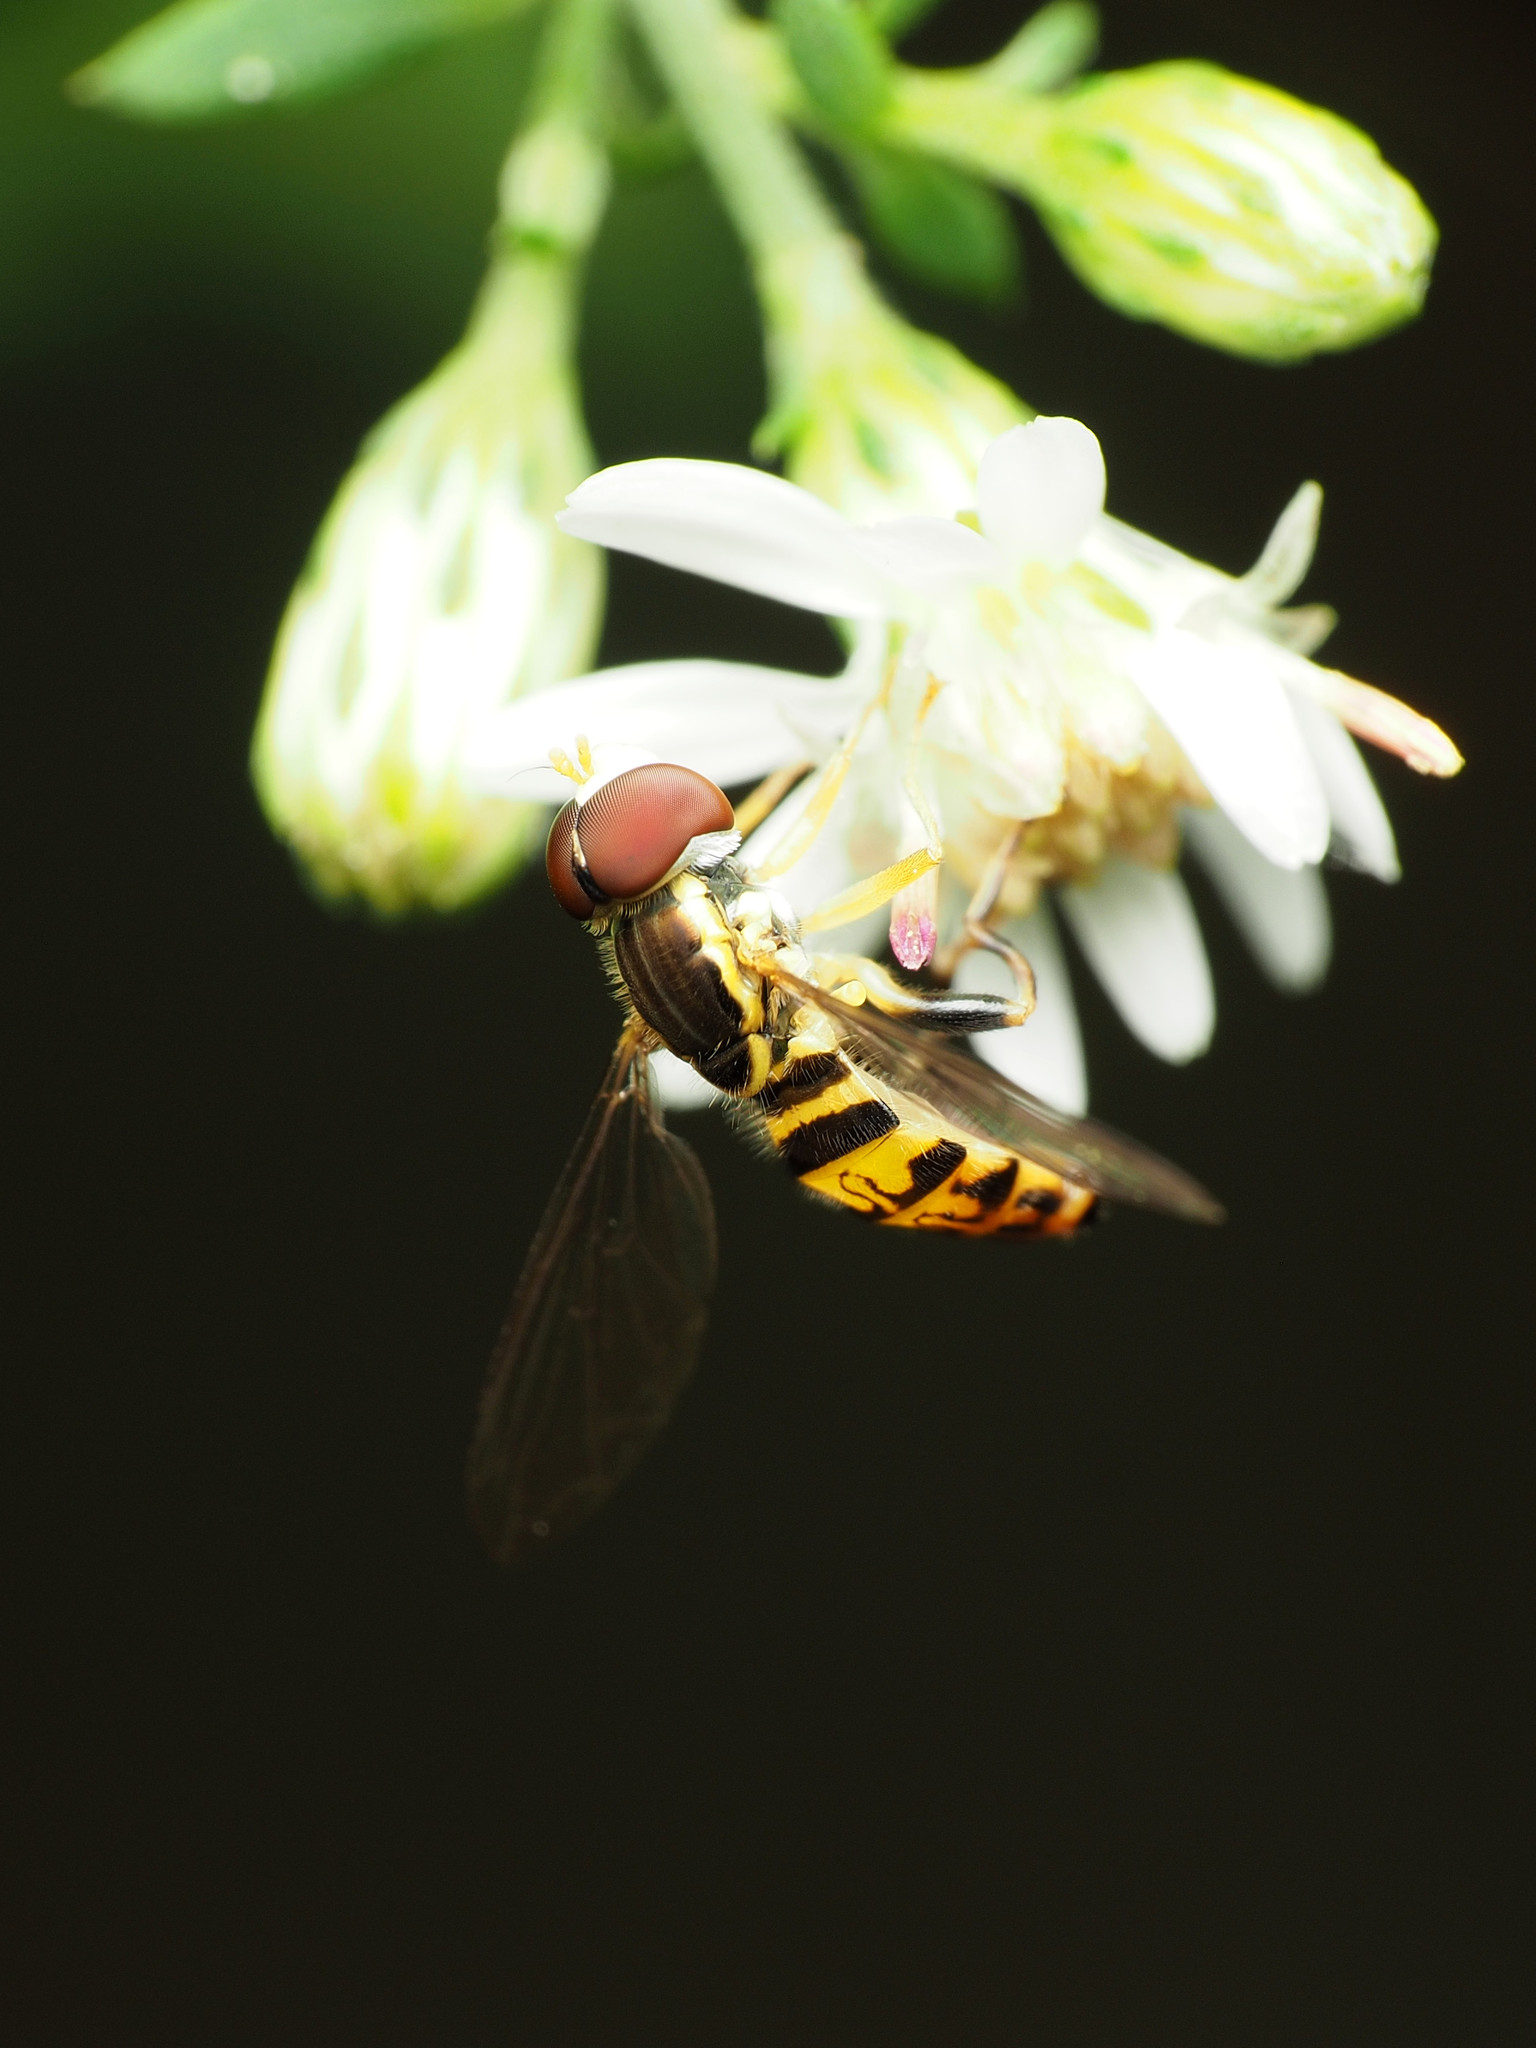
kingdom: Animalia
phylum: Arthropoda
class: Insecta
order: Diptera
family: Syrphidae
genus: Toxomerus
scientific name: Toxomerus geminatus
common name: Eastern calligrapher
